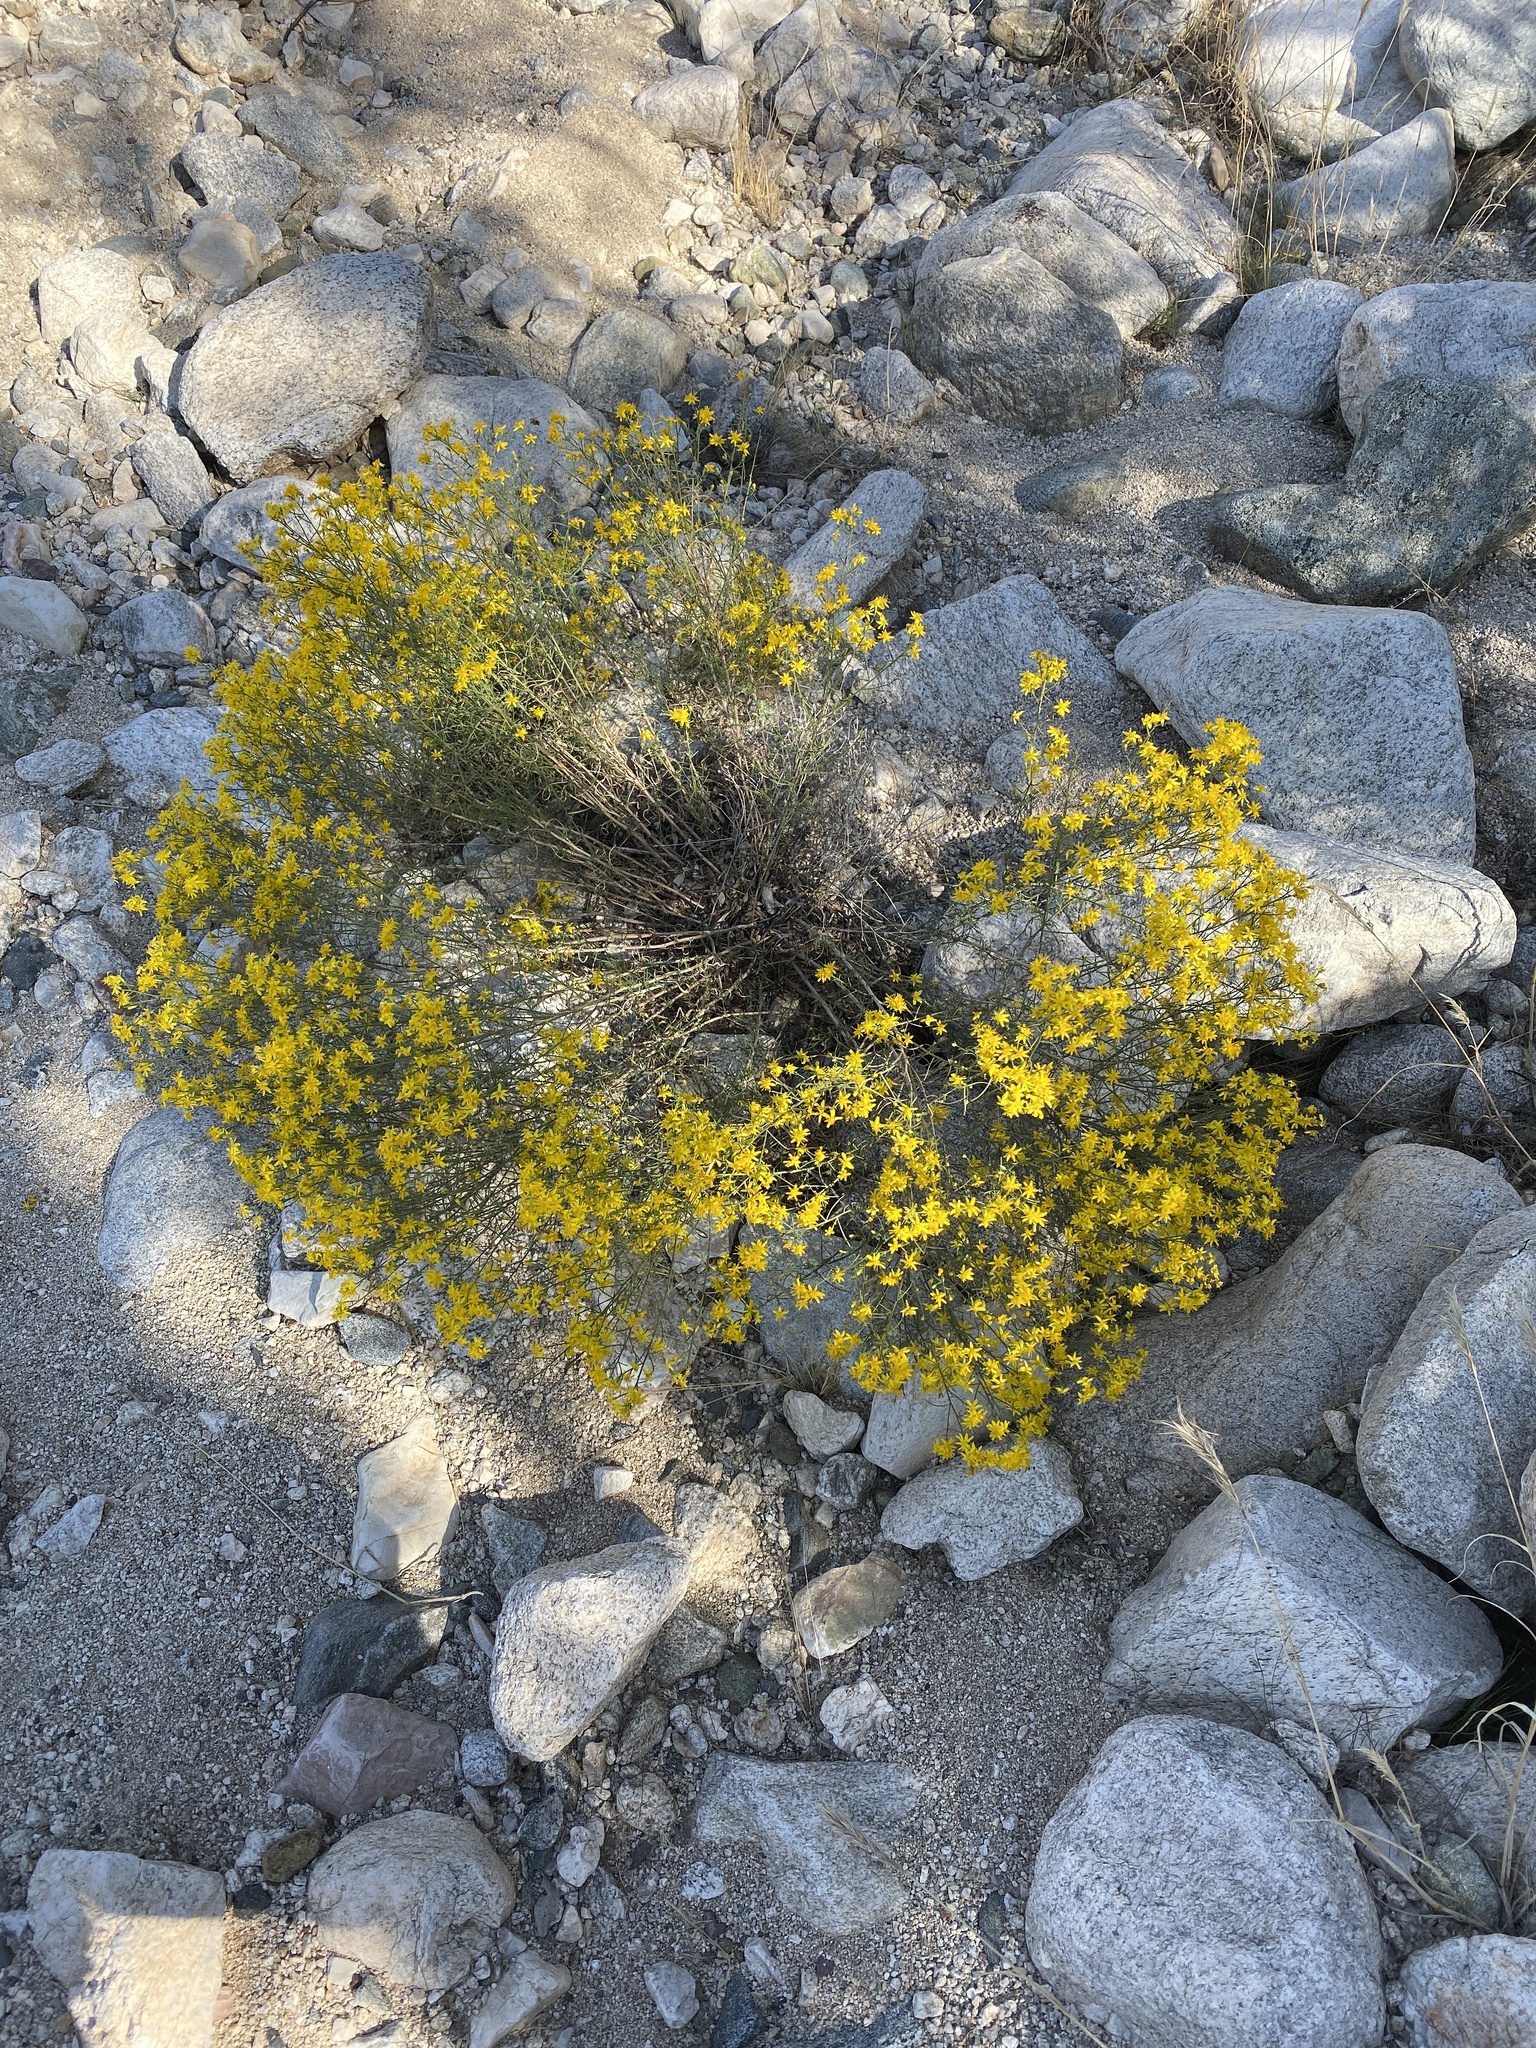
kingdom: Plantae
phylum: Tracheophyta
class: Magnoliopsida
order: Asterales
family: Asteraceae
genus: Gutierrezia
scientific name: Gutierrezia sarothrae
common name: Broom snakeweed
